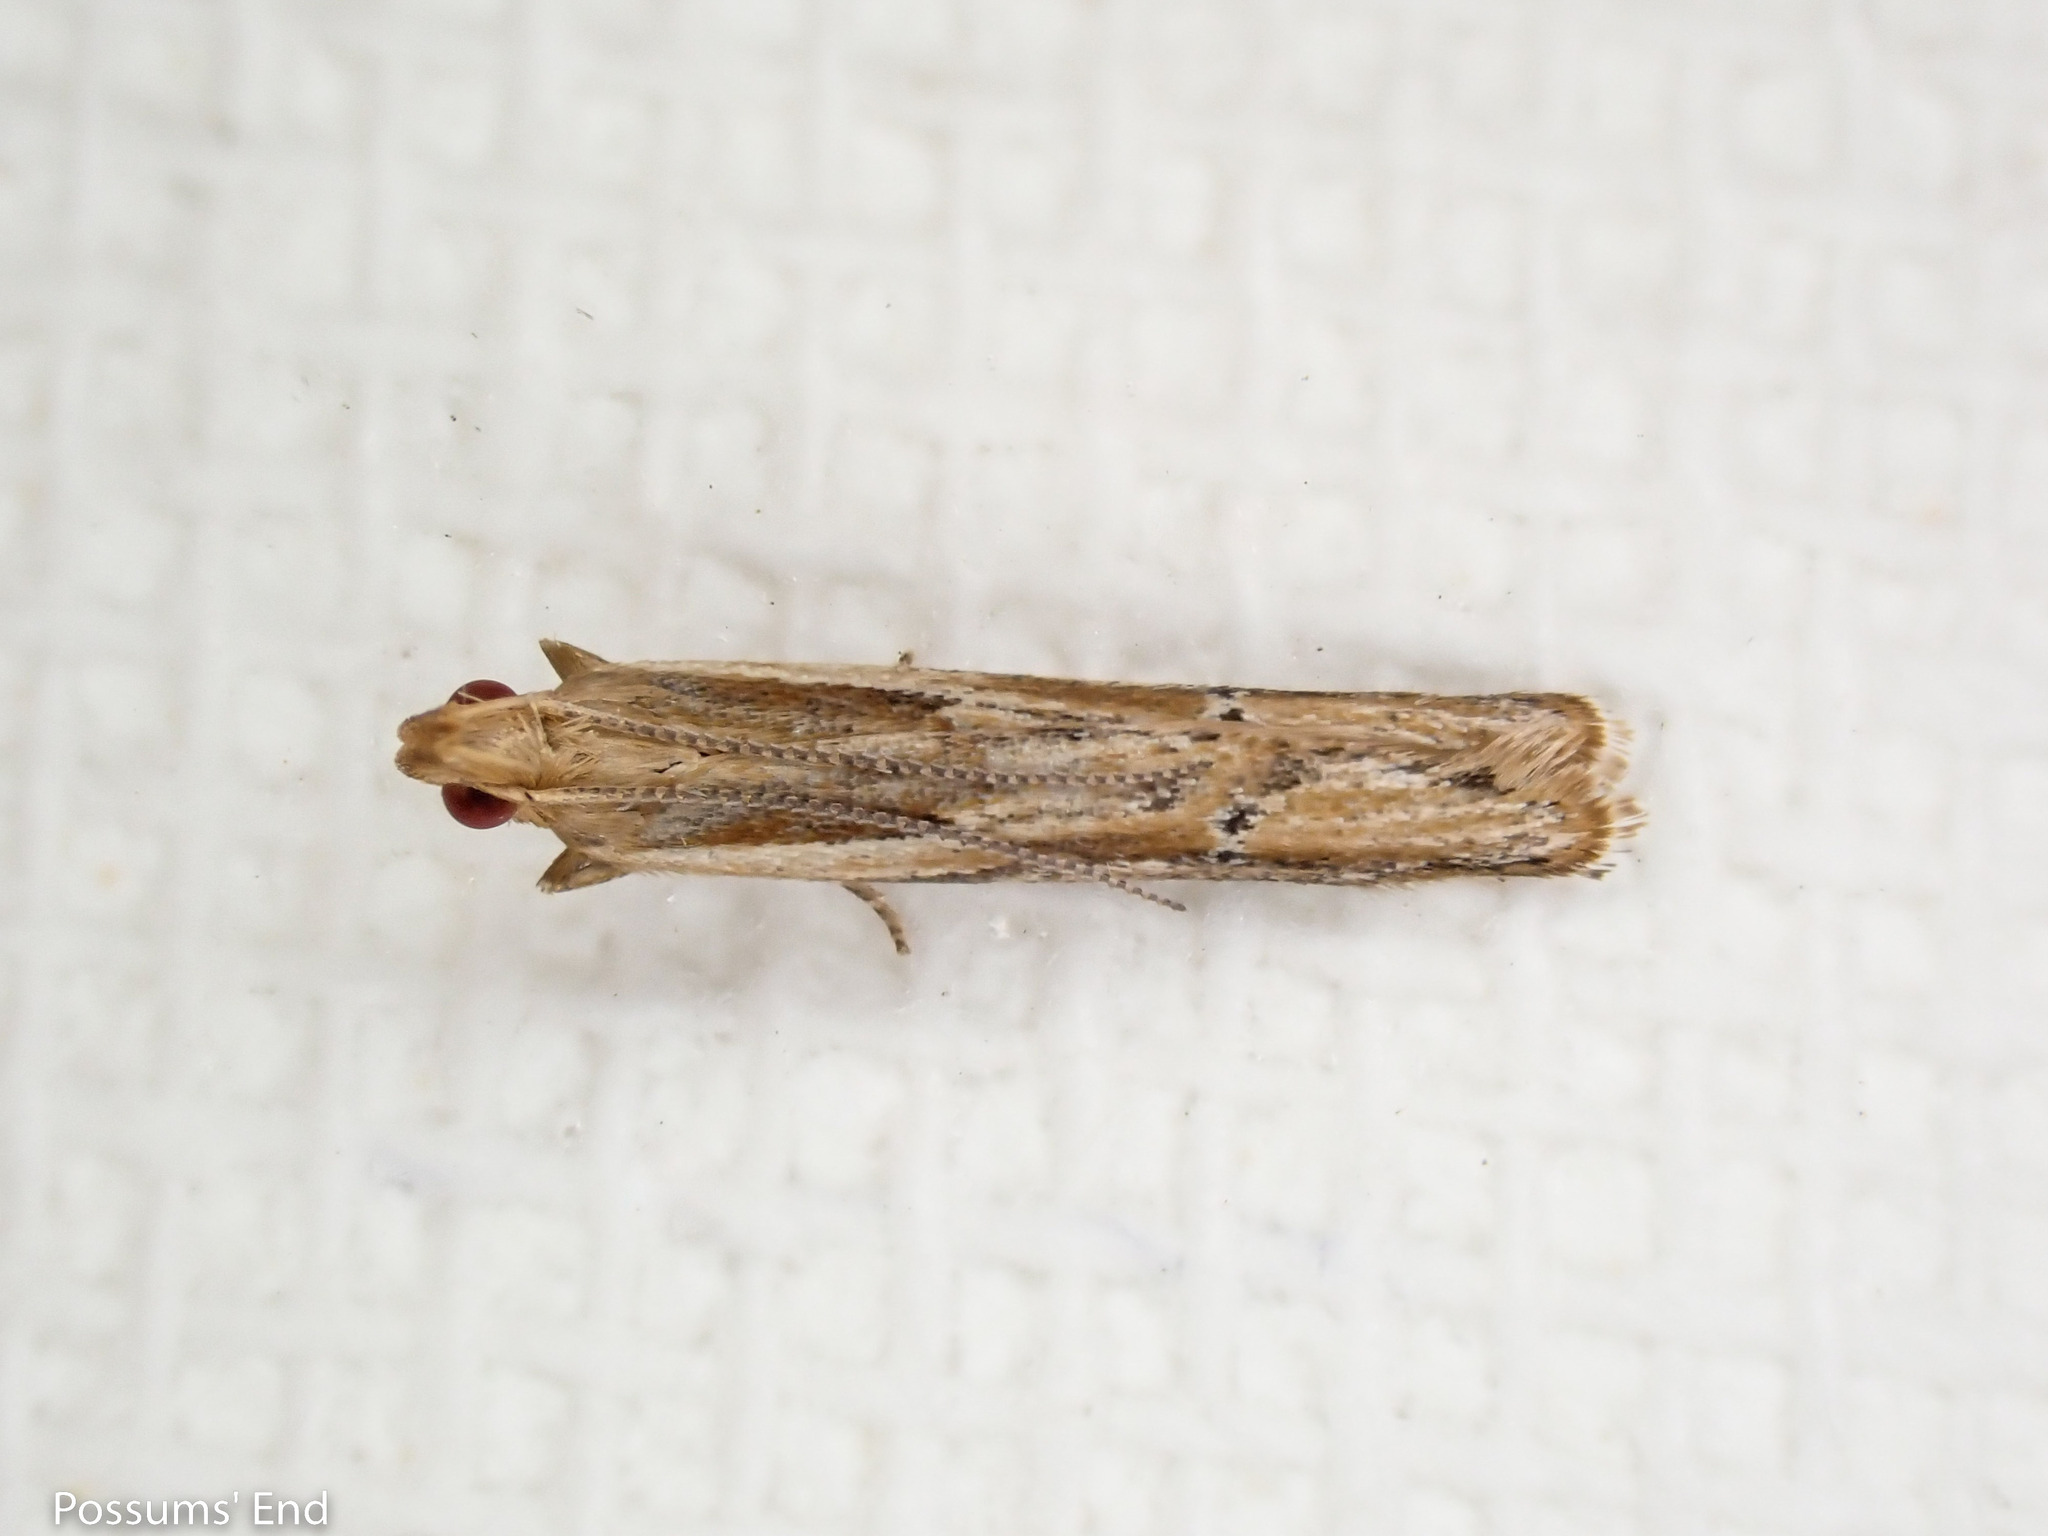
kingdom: Animalia
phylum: Arthropoda
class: Insecta
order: Lepidoptera
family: Depressariidae
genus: Eutorna
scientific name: Eutorna symmorpha
